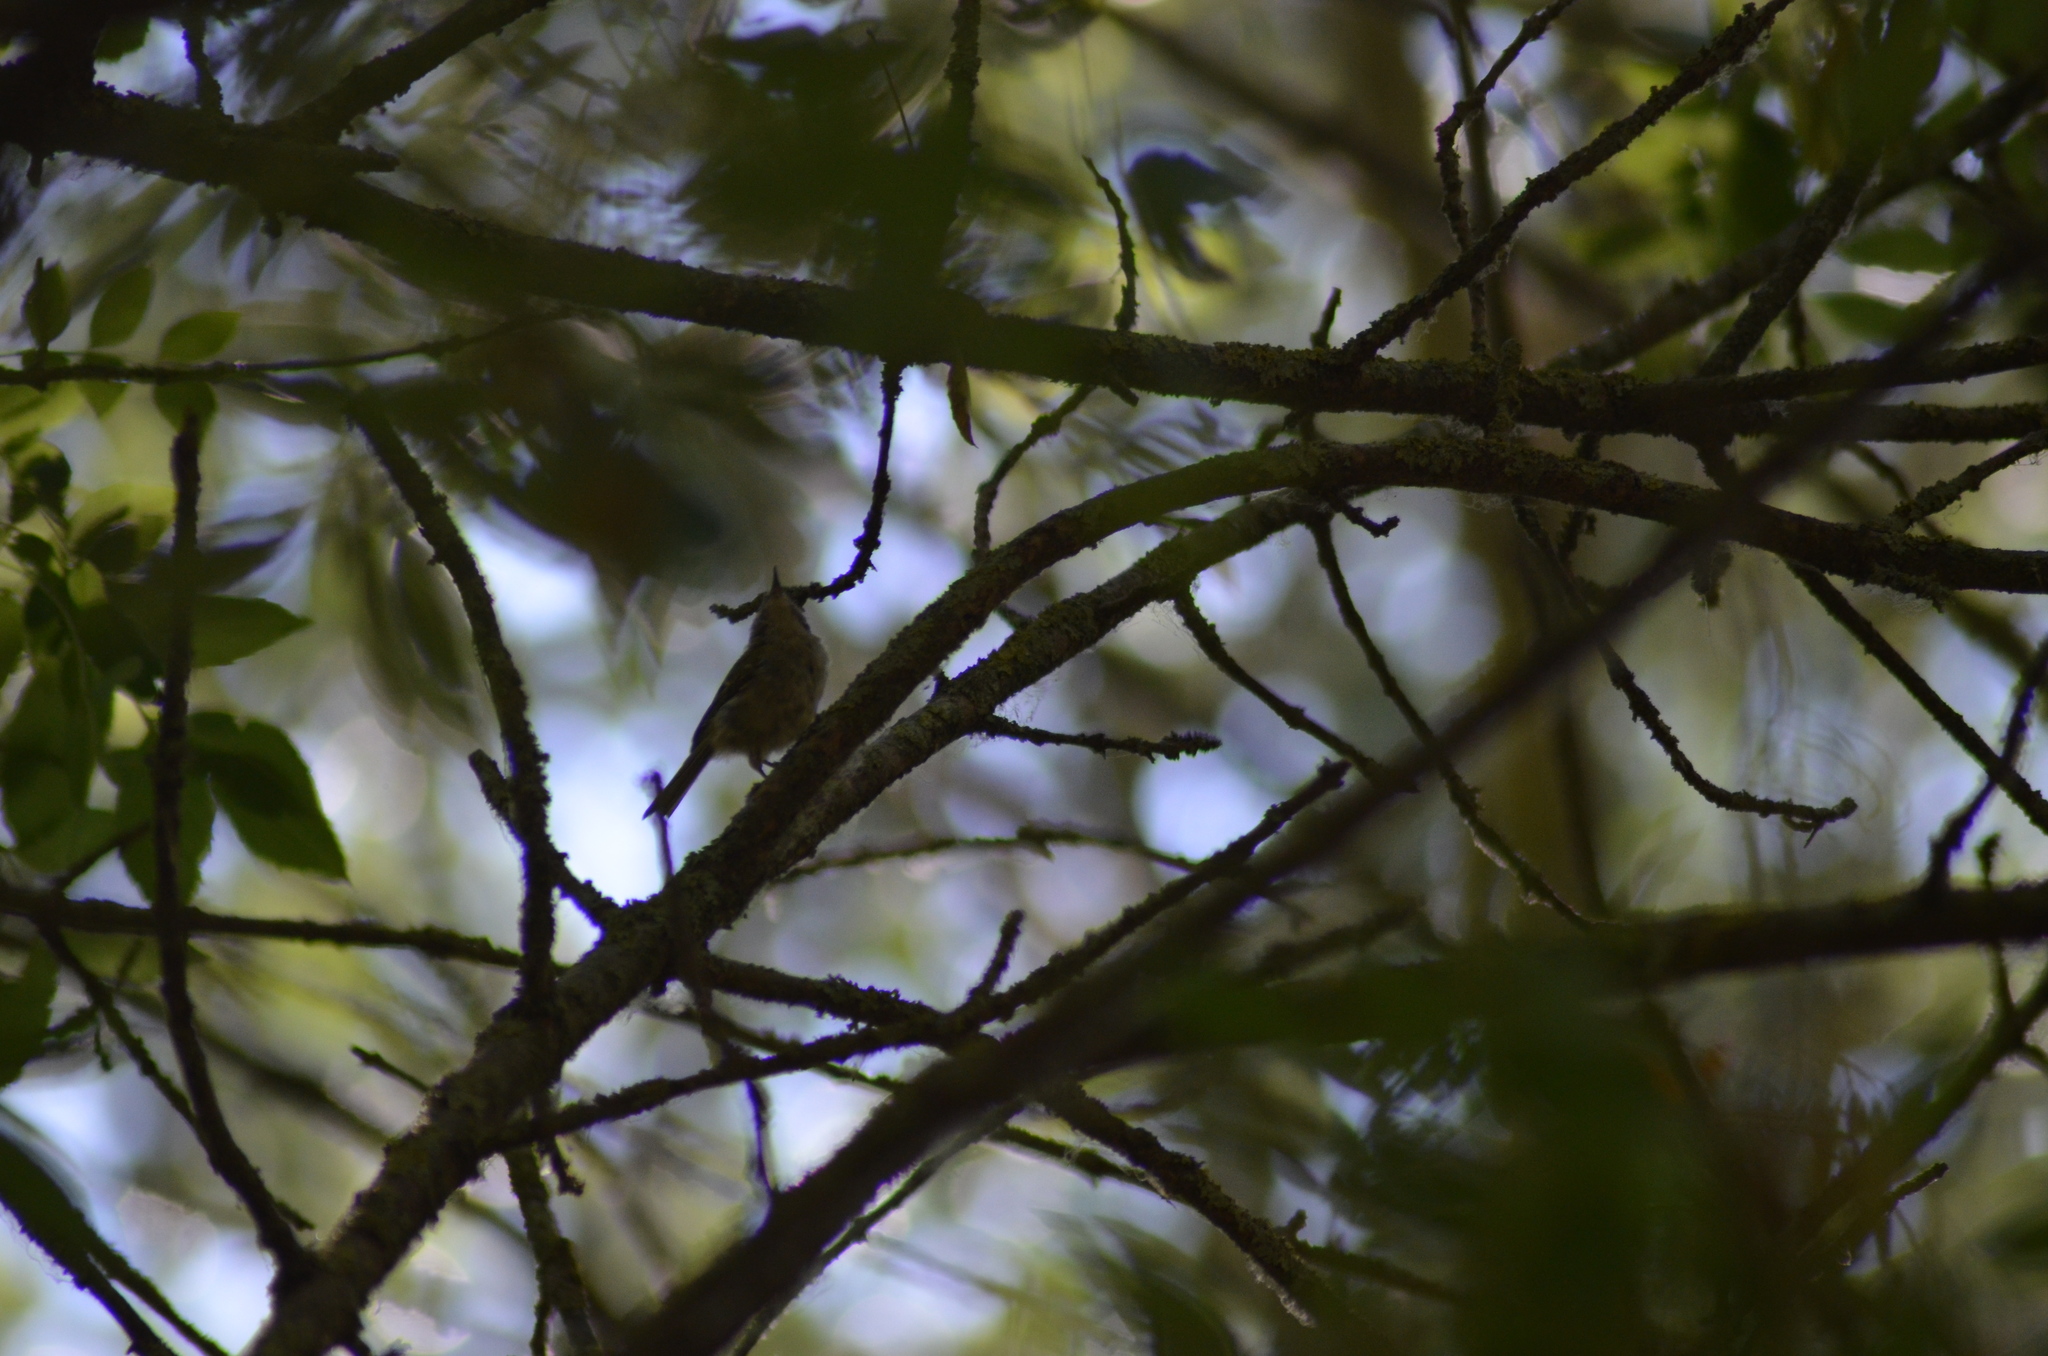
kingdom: Animalia
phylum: Chordata
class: Aves
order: Passeriformes
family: Regulidae
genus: Regulus
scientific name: Regulus ignicapilla
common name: Firecrest
